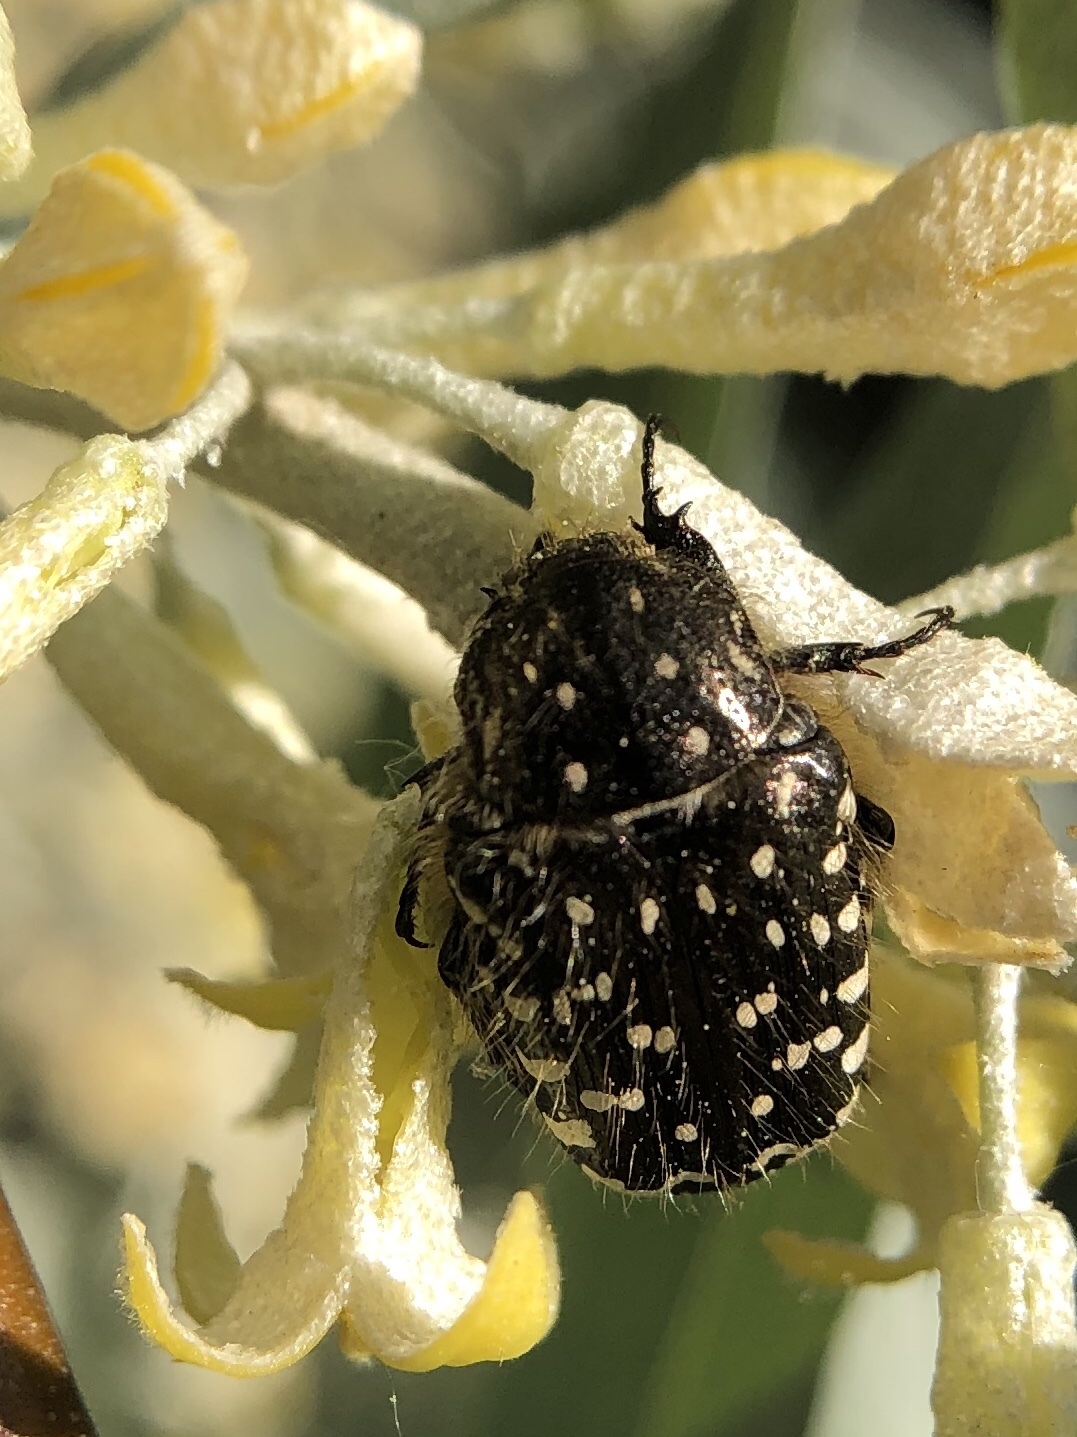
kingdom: Animalia
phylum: Arthropoda
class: Insecta
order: Coleoptera
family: Scarabaeidae
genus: Oxythyrea
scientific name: Oxythyrea funesta
